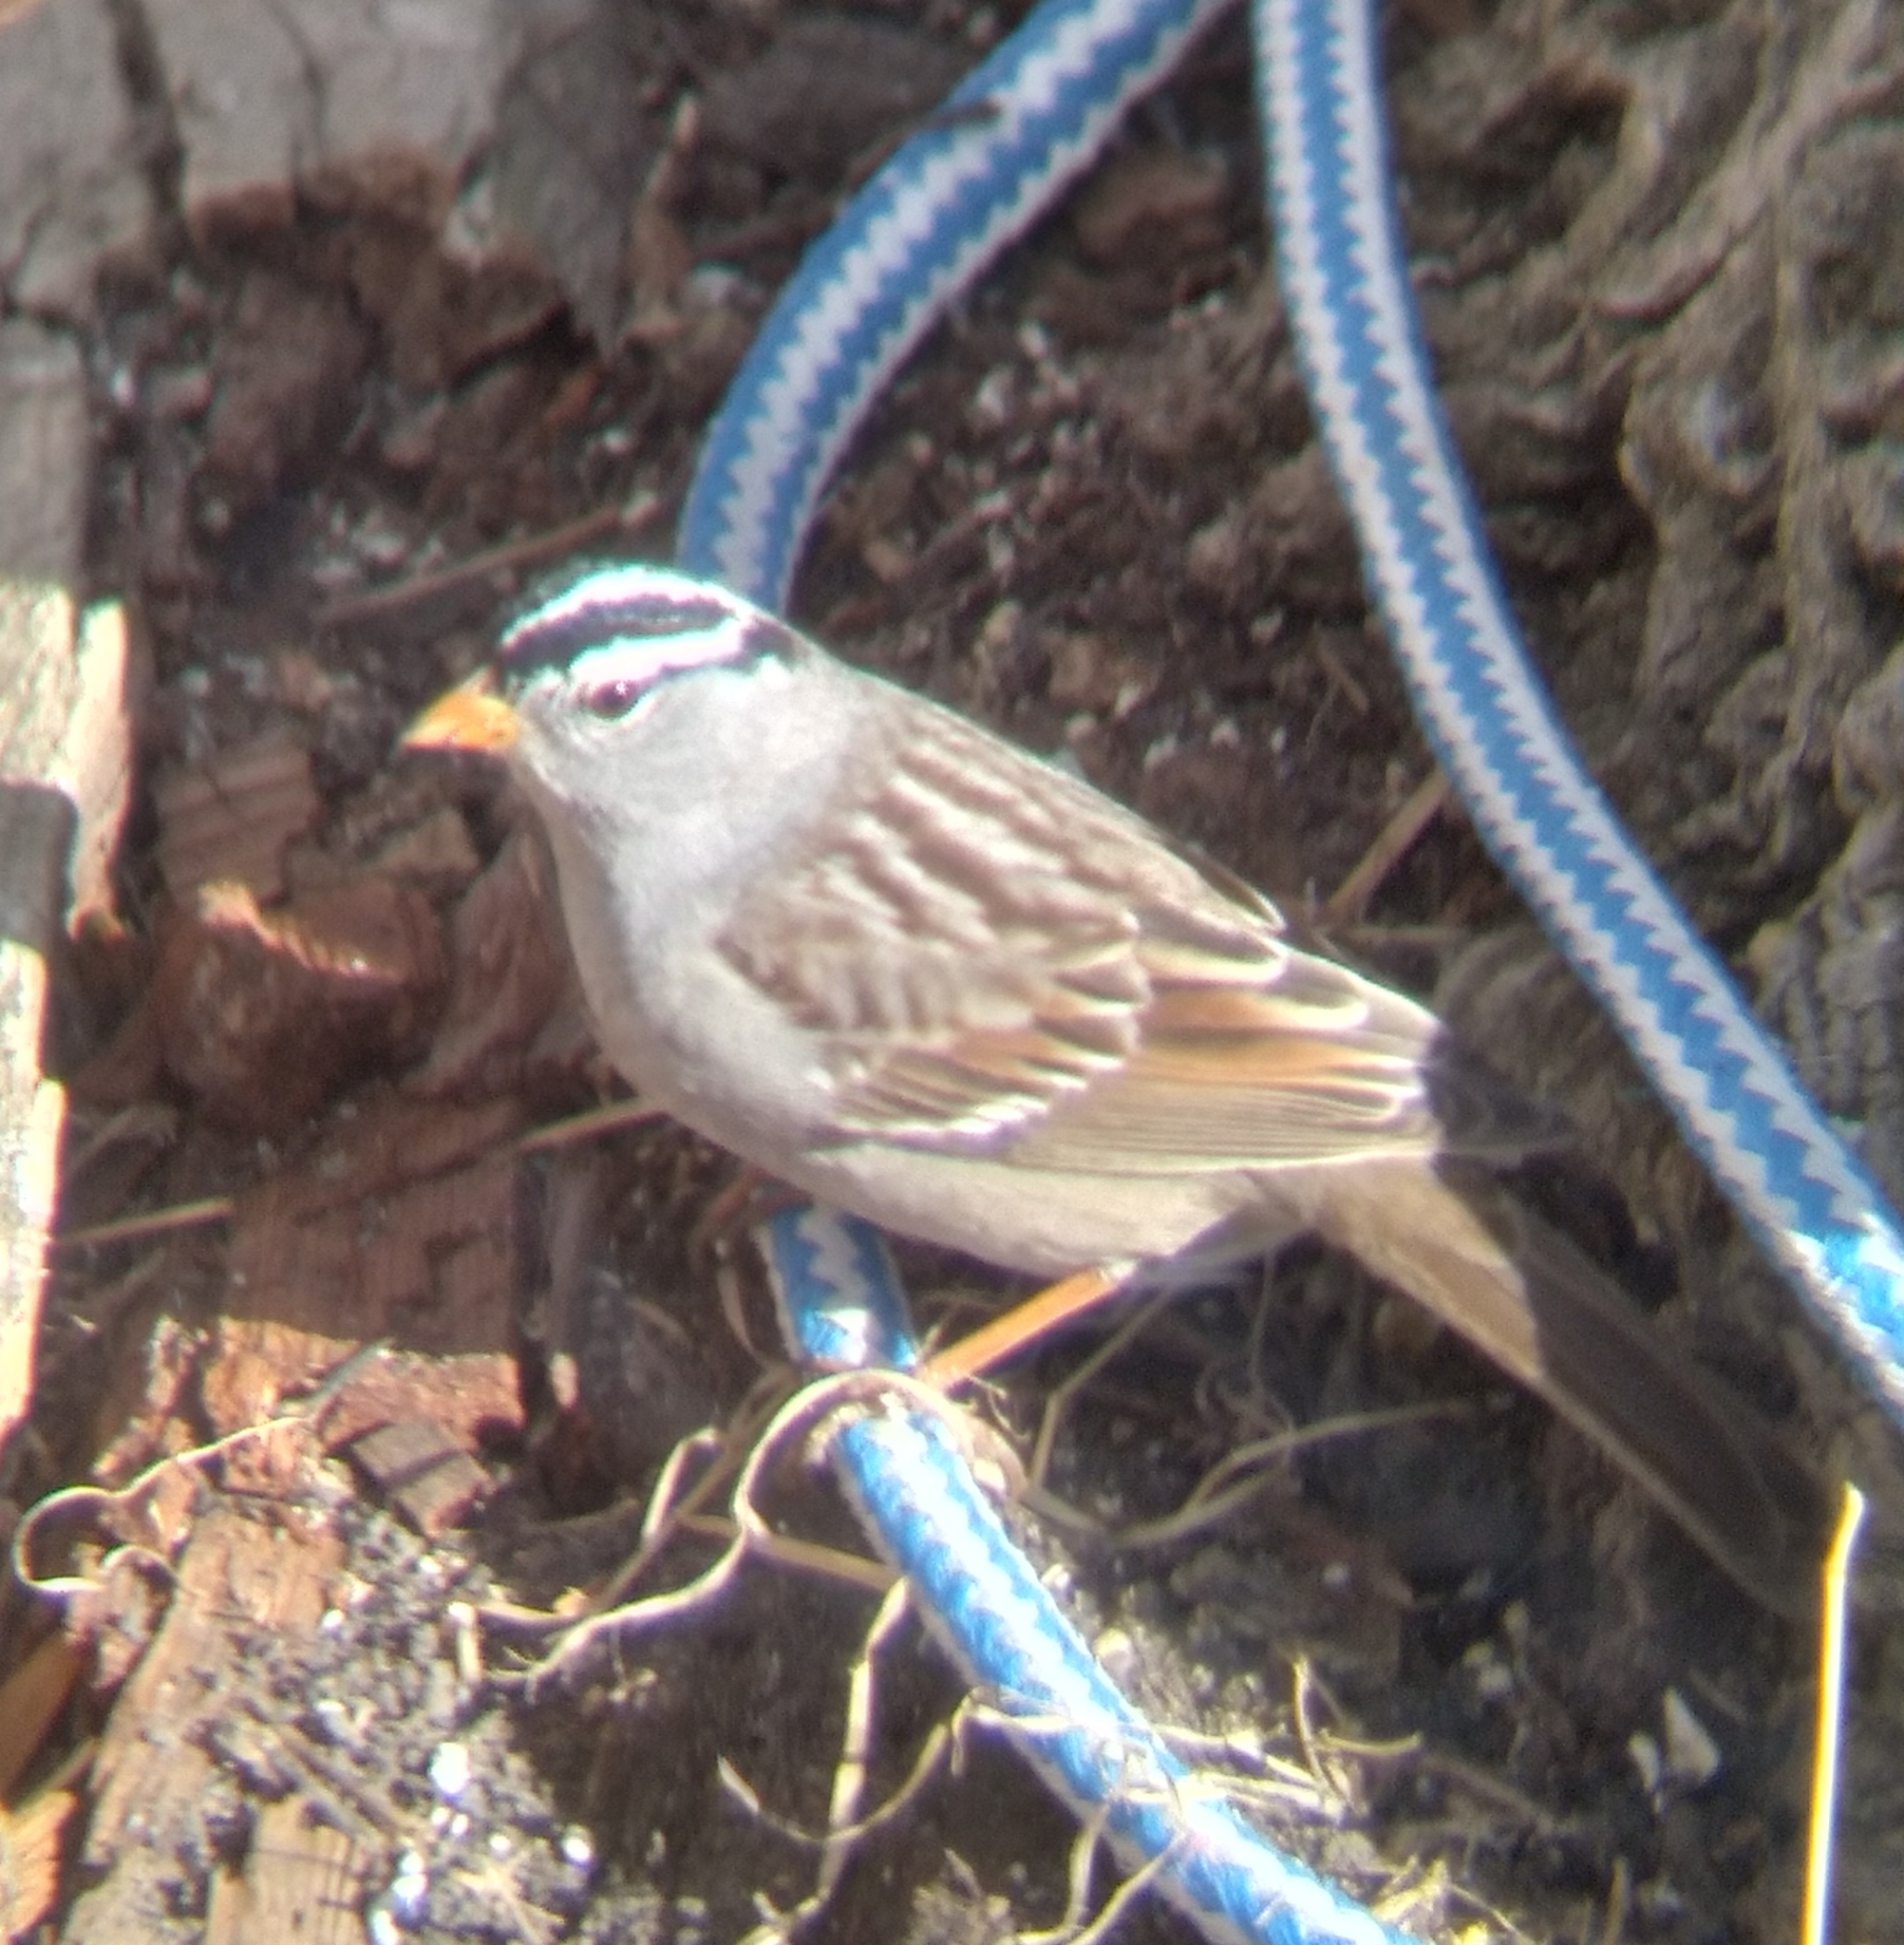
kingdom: Animalia
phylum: Chordata
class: Aves
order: Passeriformes
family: Passerellidae
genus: Zonotrichia
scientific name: Zonotrichia leucophrys
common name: White-crowned sparrow
